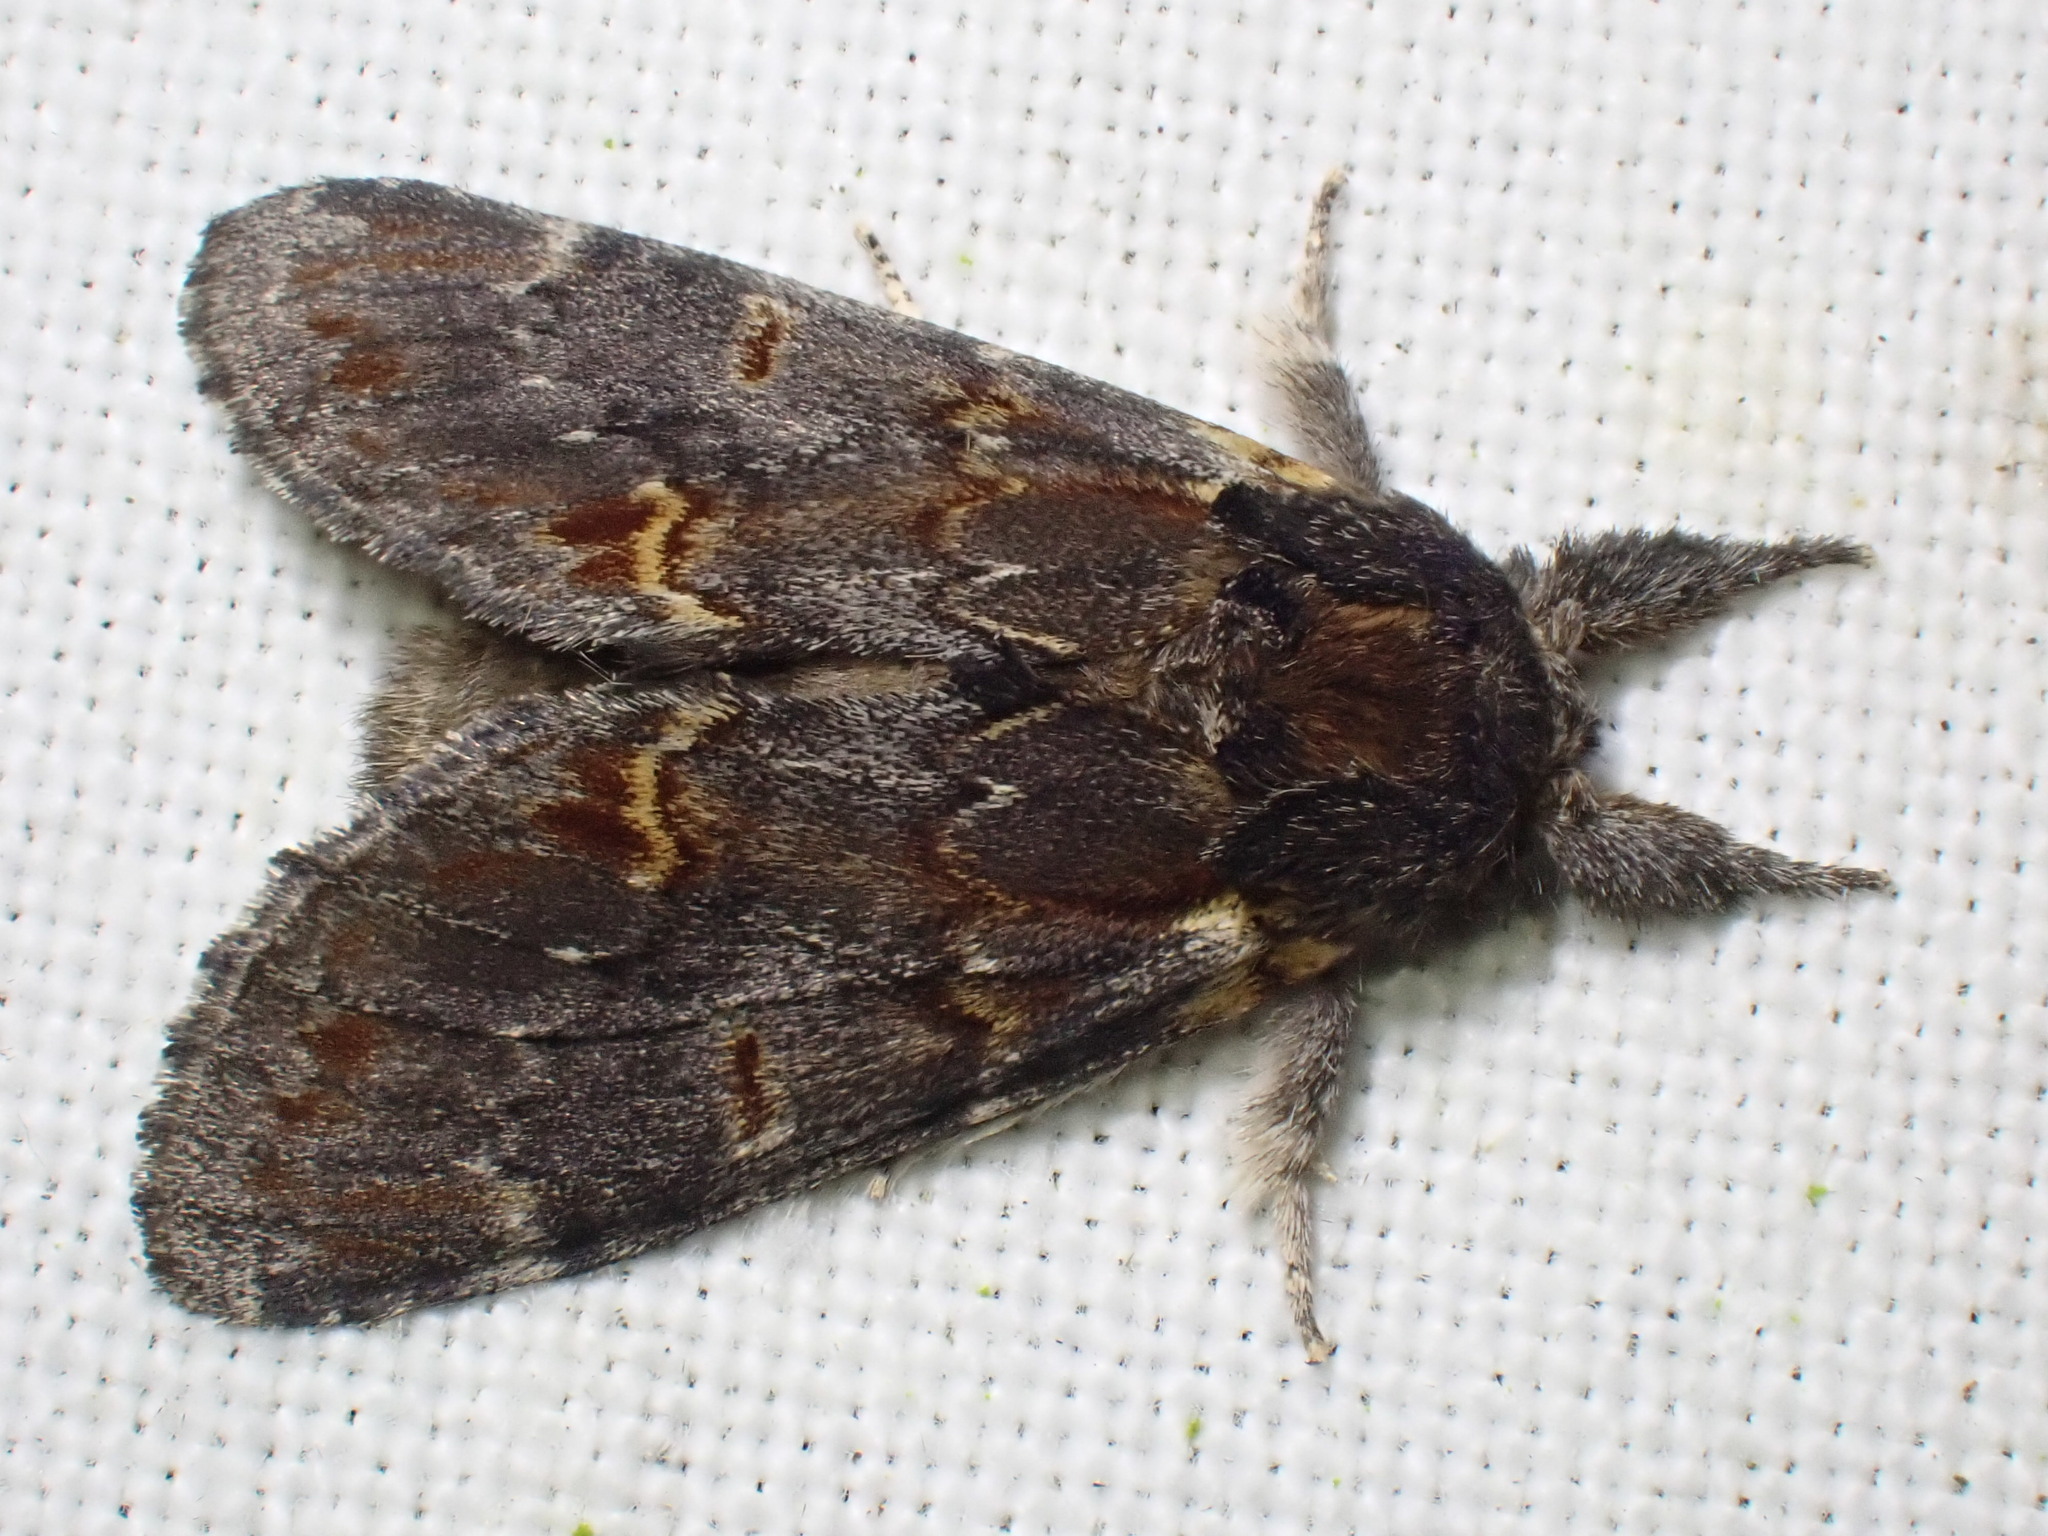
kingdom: Animalia
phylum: Arthropoda
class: Insecta
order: Lepidoptera
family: Notodontidae
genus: Notodonta
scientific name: Notodonta dromedarius
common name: Iron prominent
